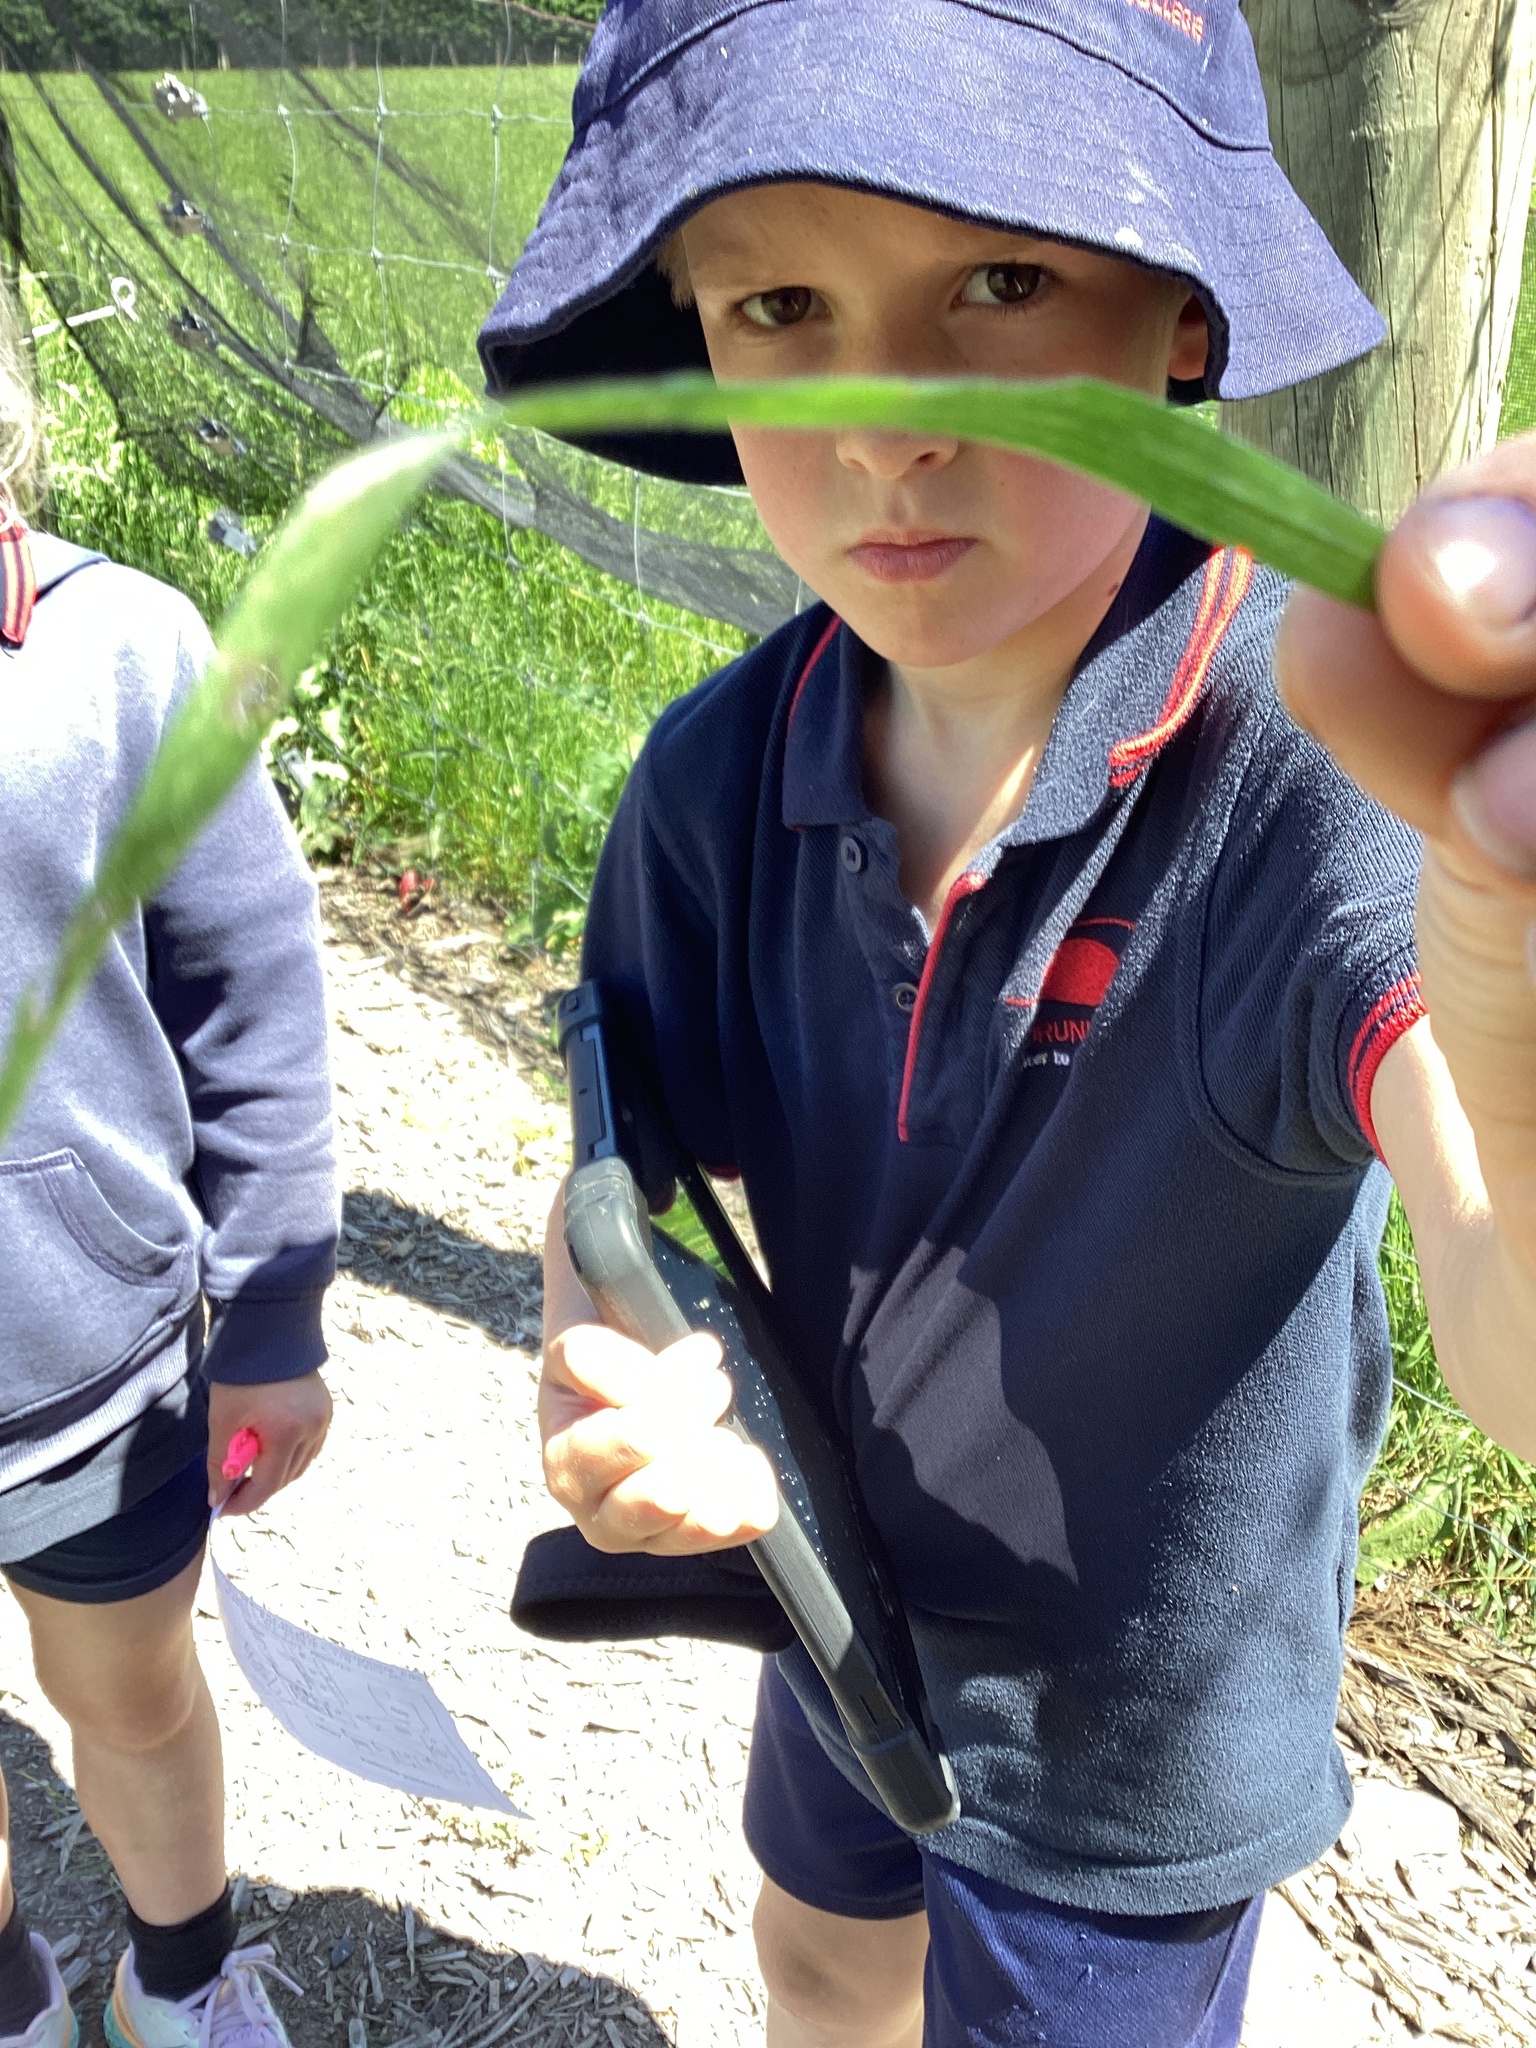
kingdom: Plantae
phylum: Tracheophyta
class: Liliopsida
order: Poales
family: Poaceae
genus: Holcus
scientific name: Holcus lanatus
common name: Yorkshire-fog
